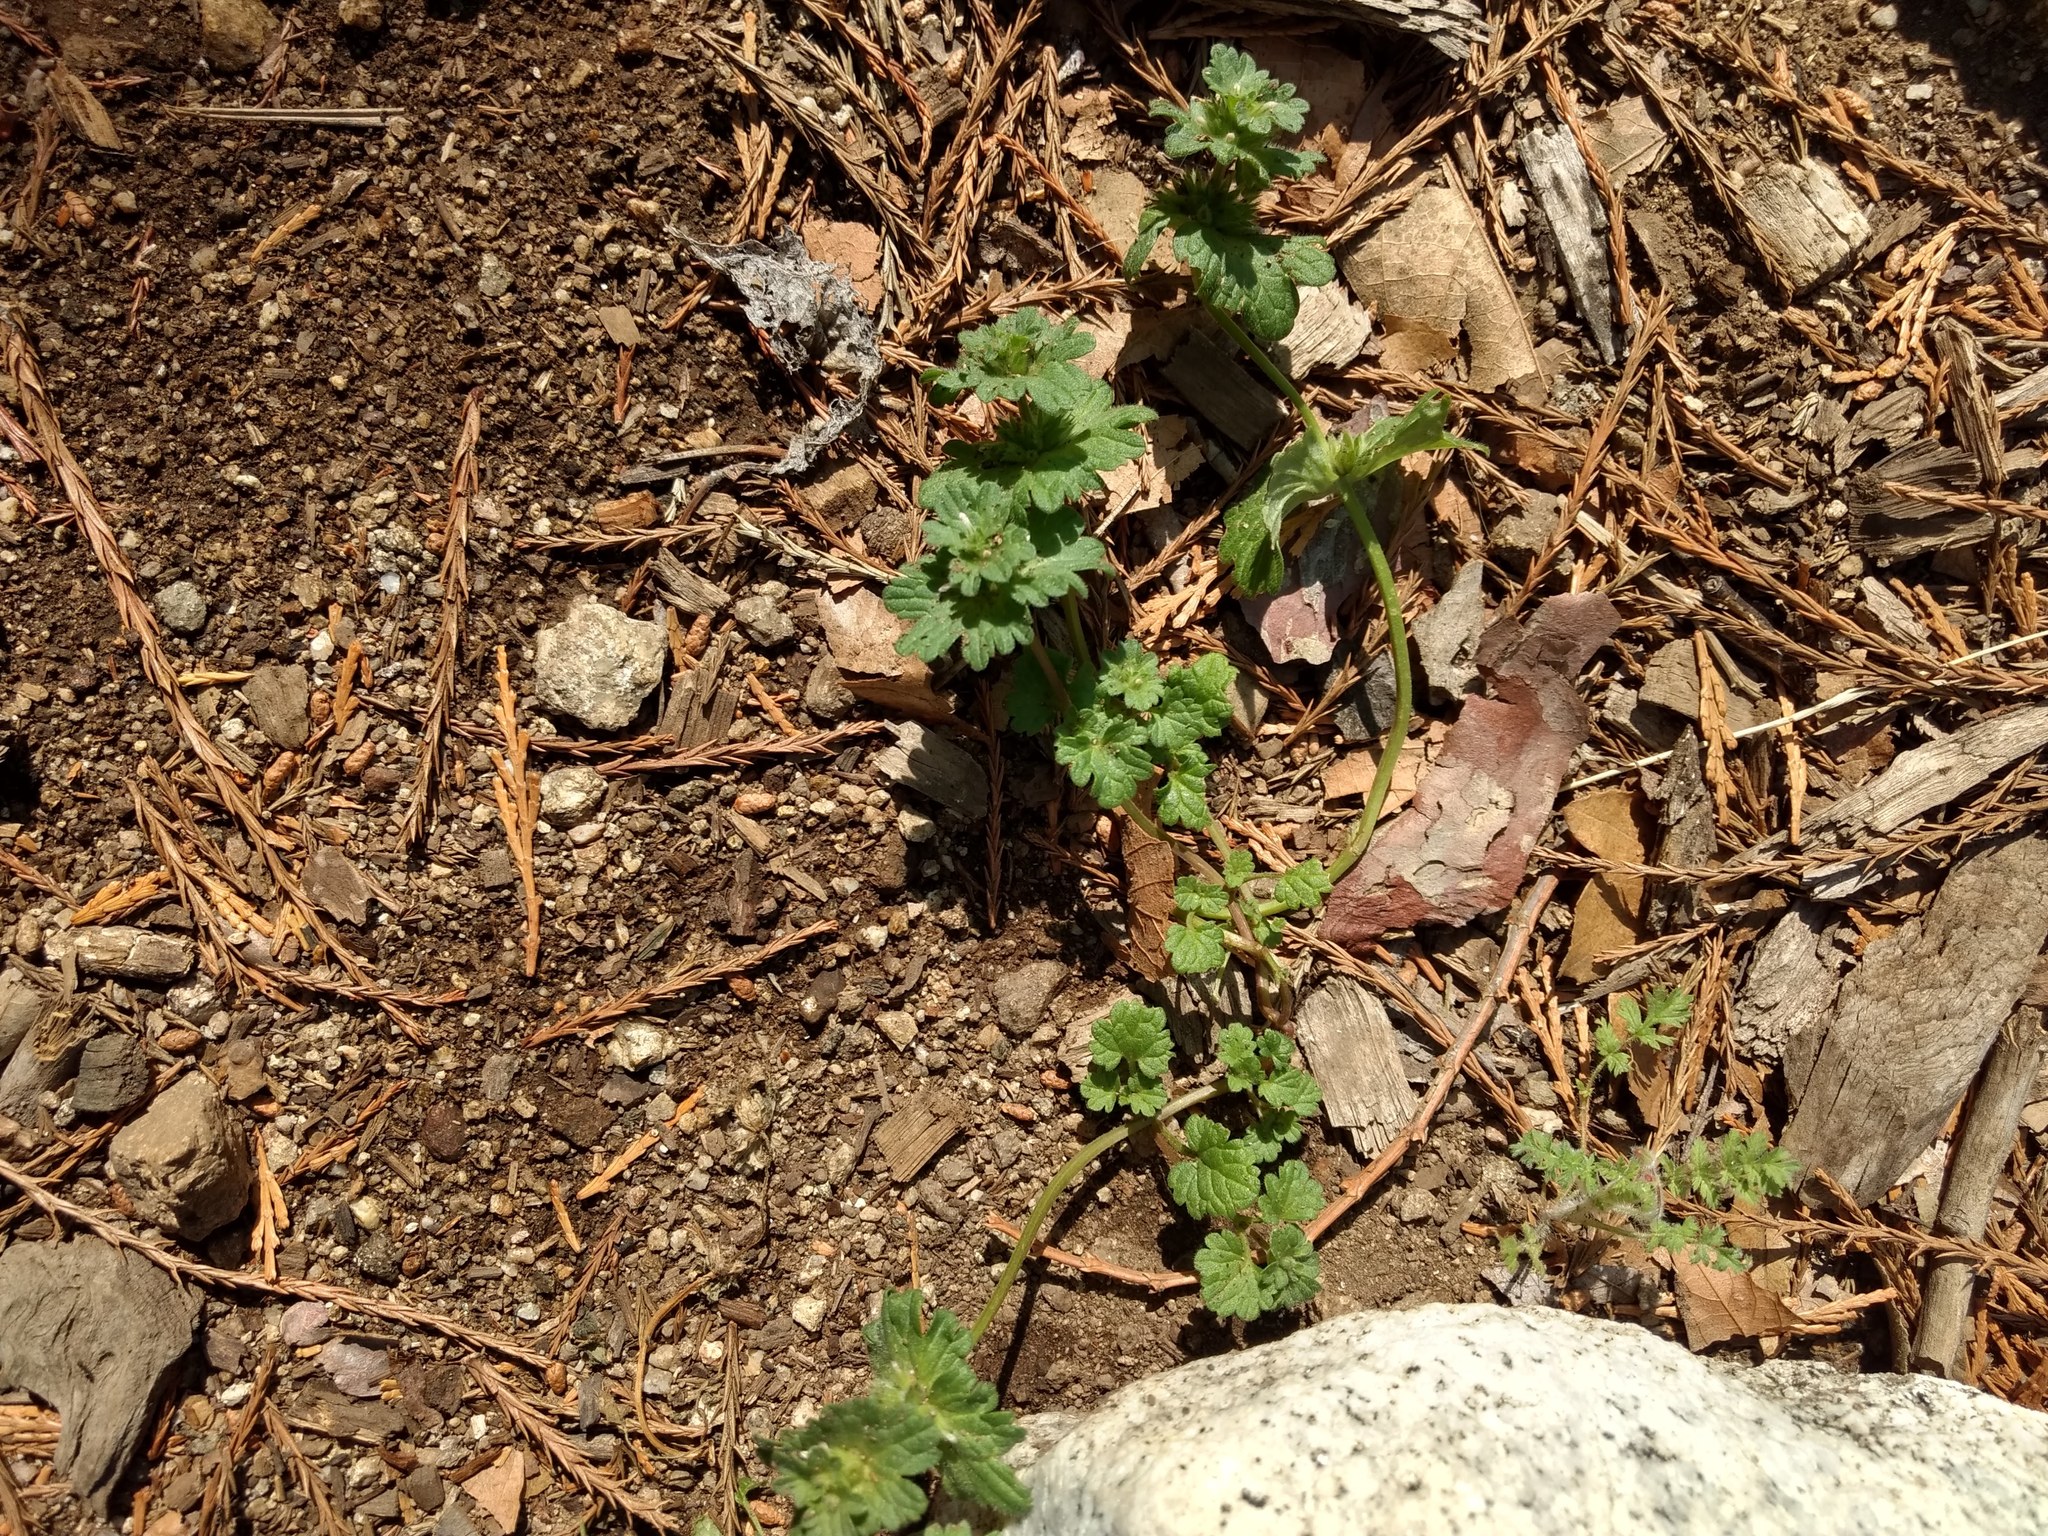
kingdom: Plantae
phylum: Tracheophyta
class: Magnoliopsida
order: Lamiales
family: Lamiaceae
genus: Lamium
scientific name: Lamium amplexicaule
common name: Henbit dead-nettle
